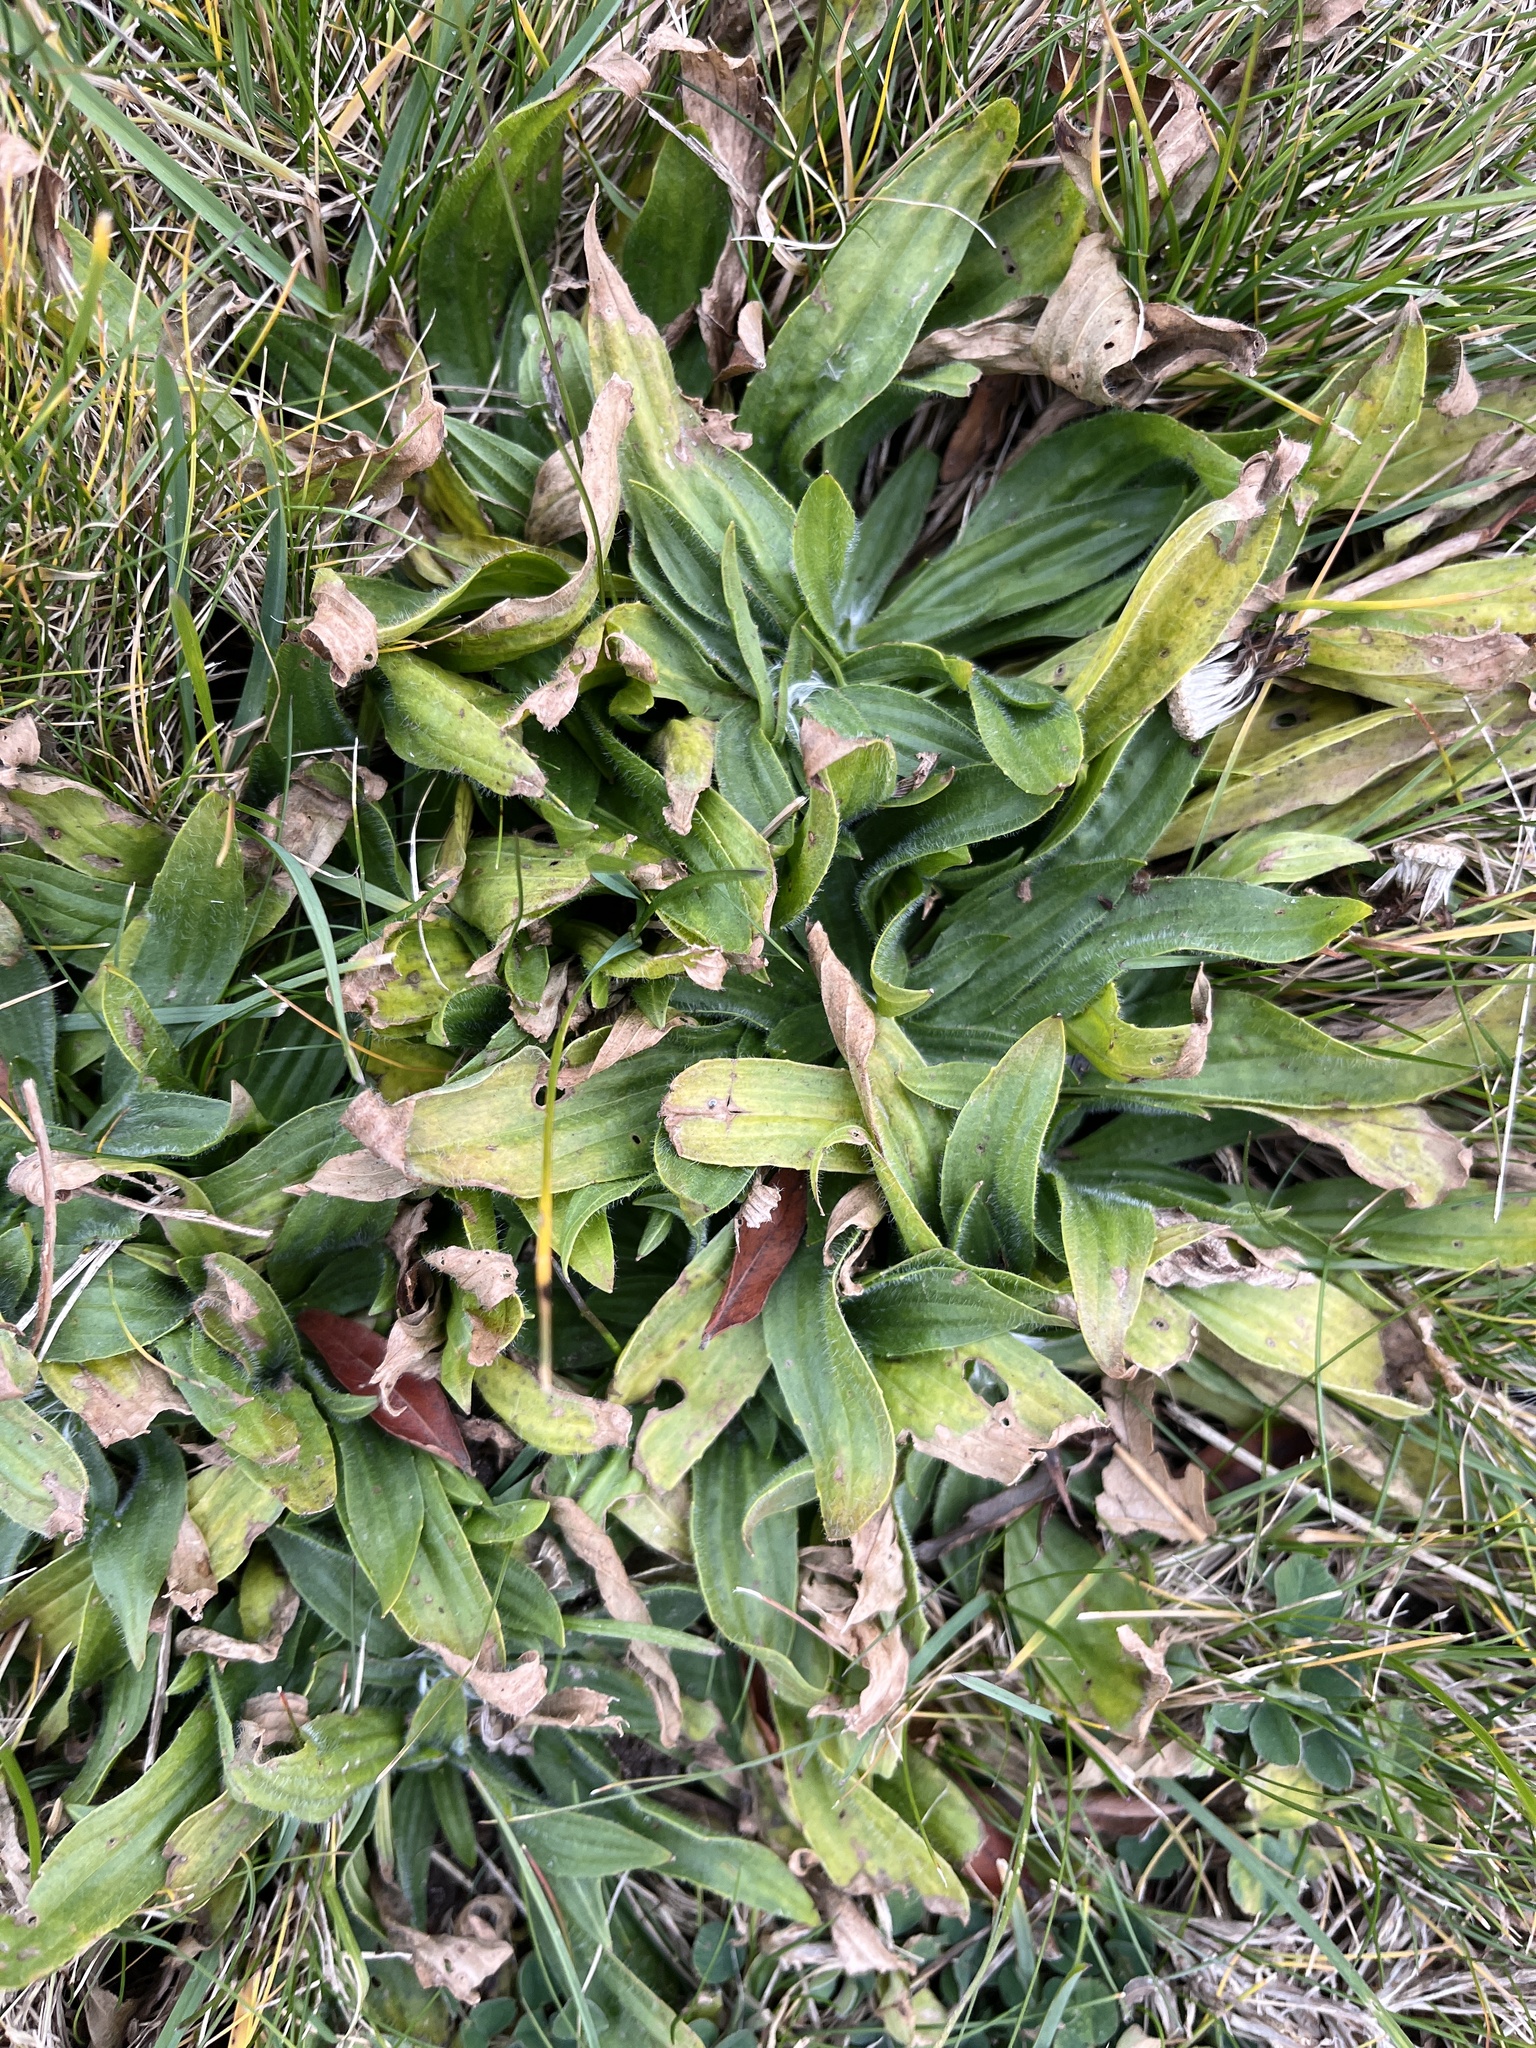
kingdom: Plantae
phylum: Tracheophyta
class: Magnoliopsida
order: Lamiales
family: Plantaginaceae
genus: Plantago
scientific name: Plantago lanceolata
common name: Ribwort plantain
